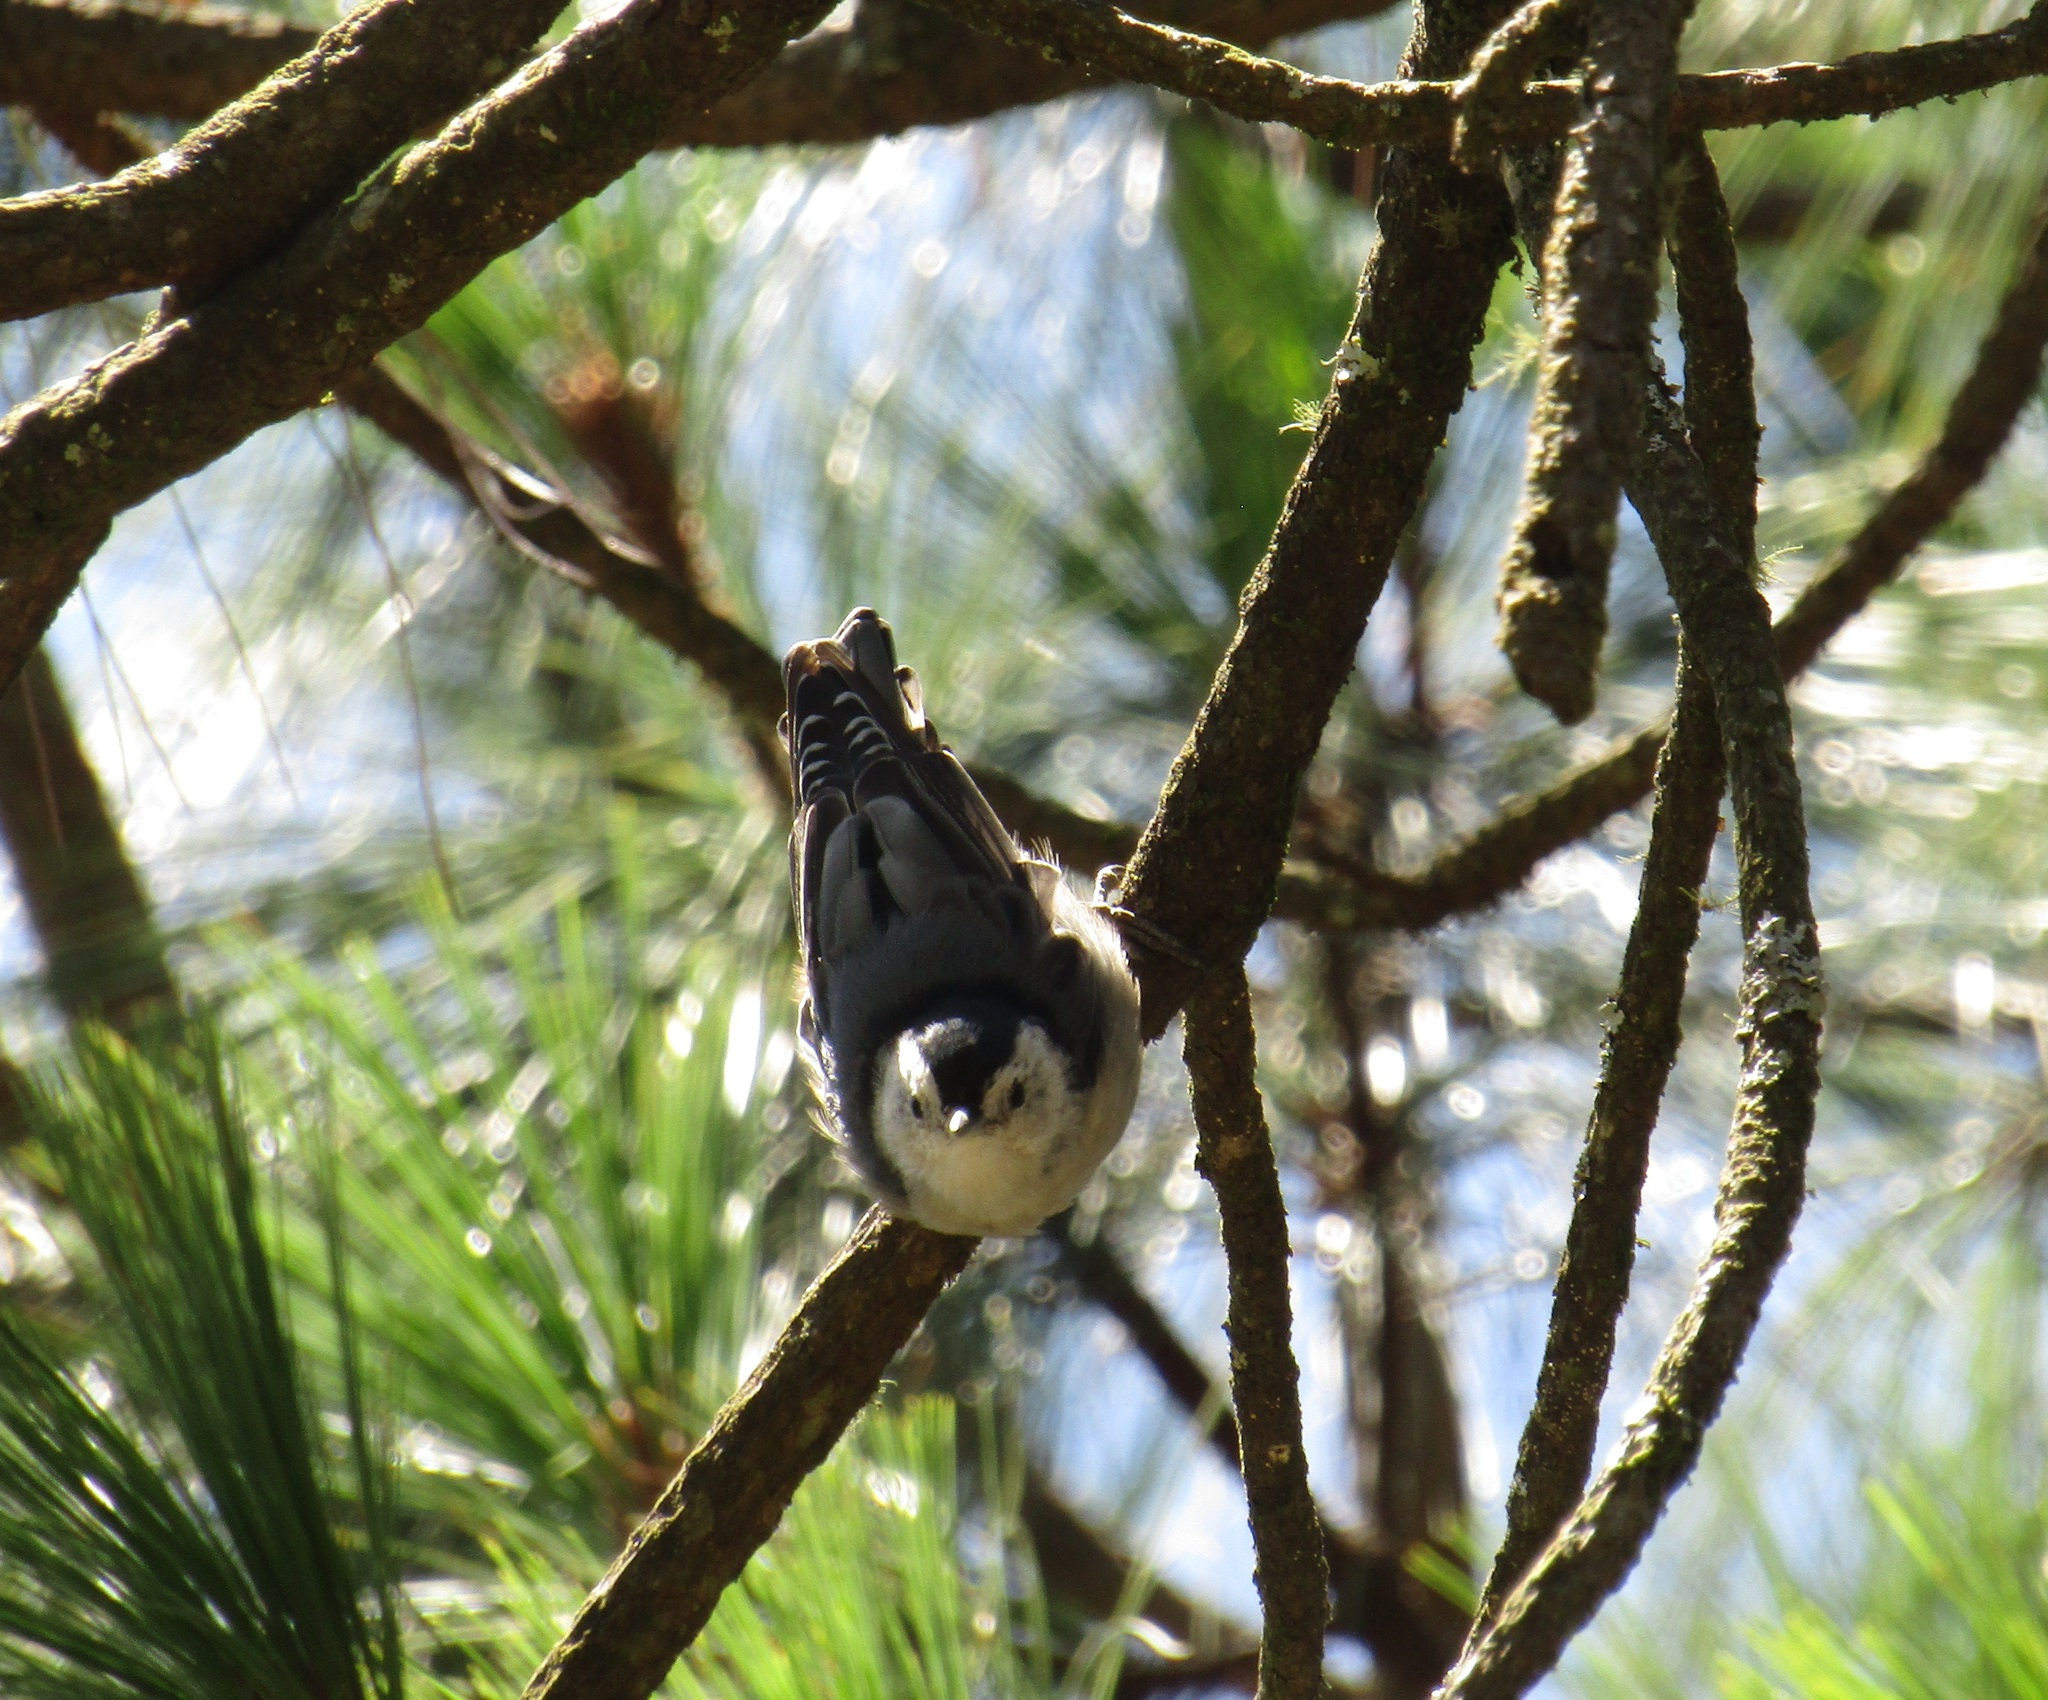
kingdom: Animalia
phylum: Chordata
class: Aves
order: Passeriformes
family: Sittidae
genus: Sitta
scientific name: Sitta carolinensis
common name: White-breasted nuthatch
